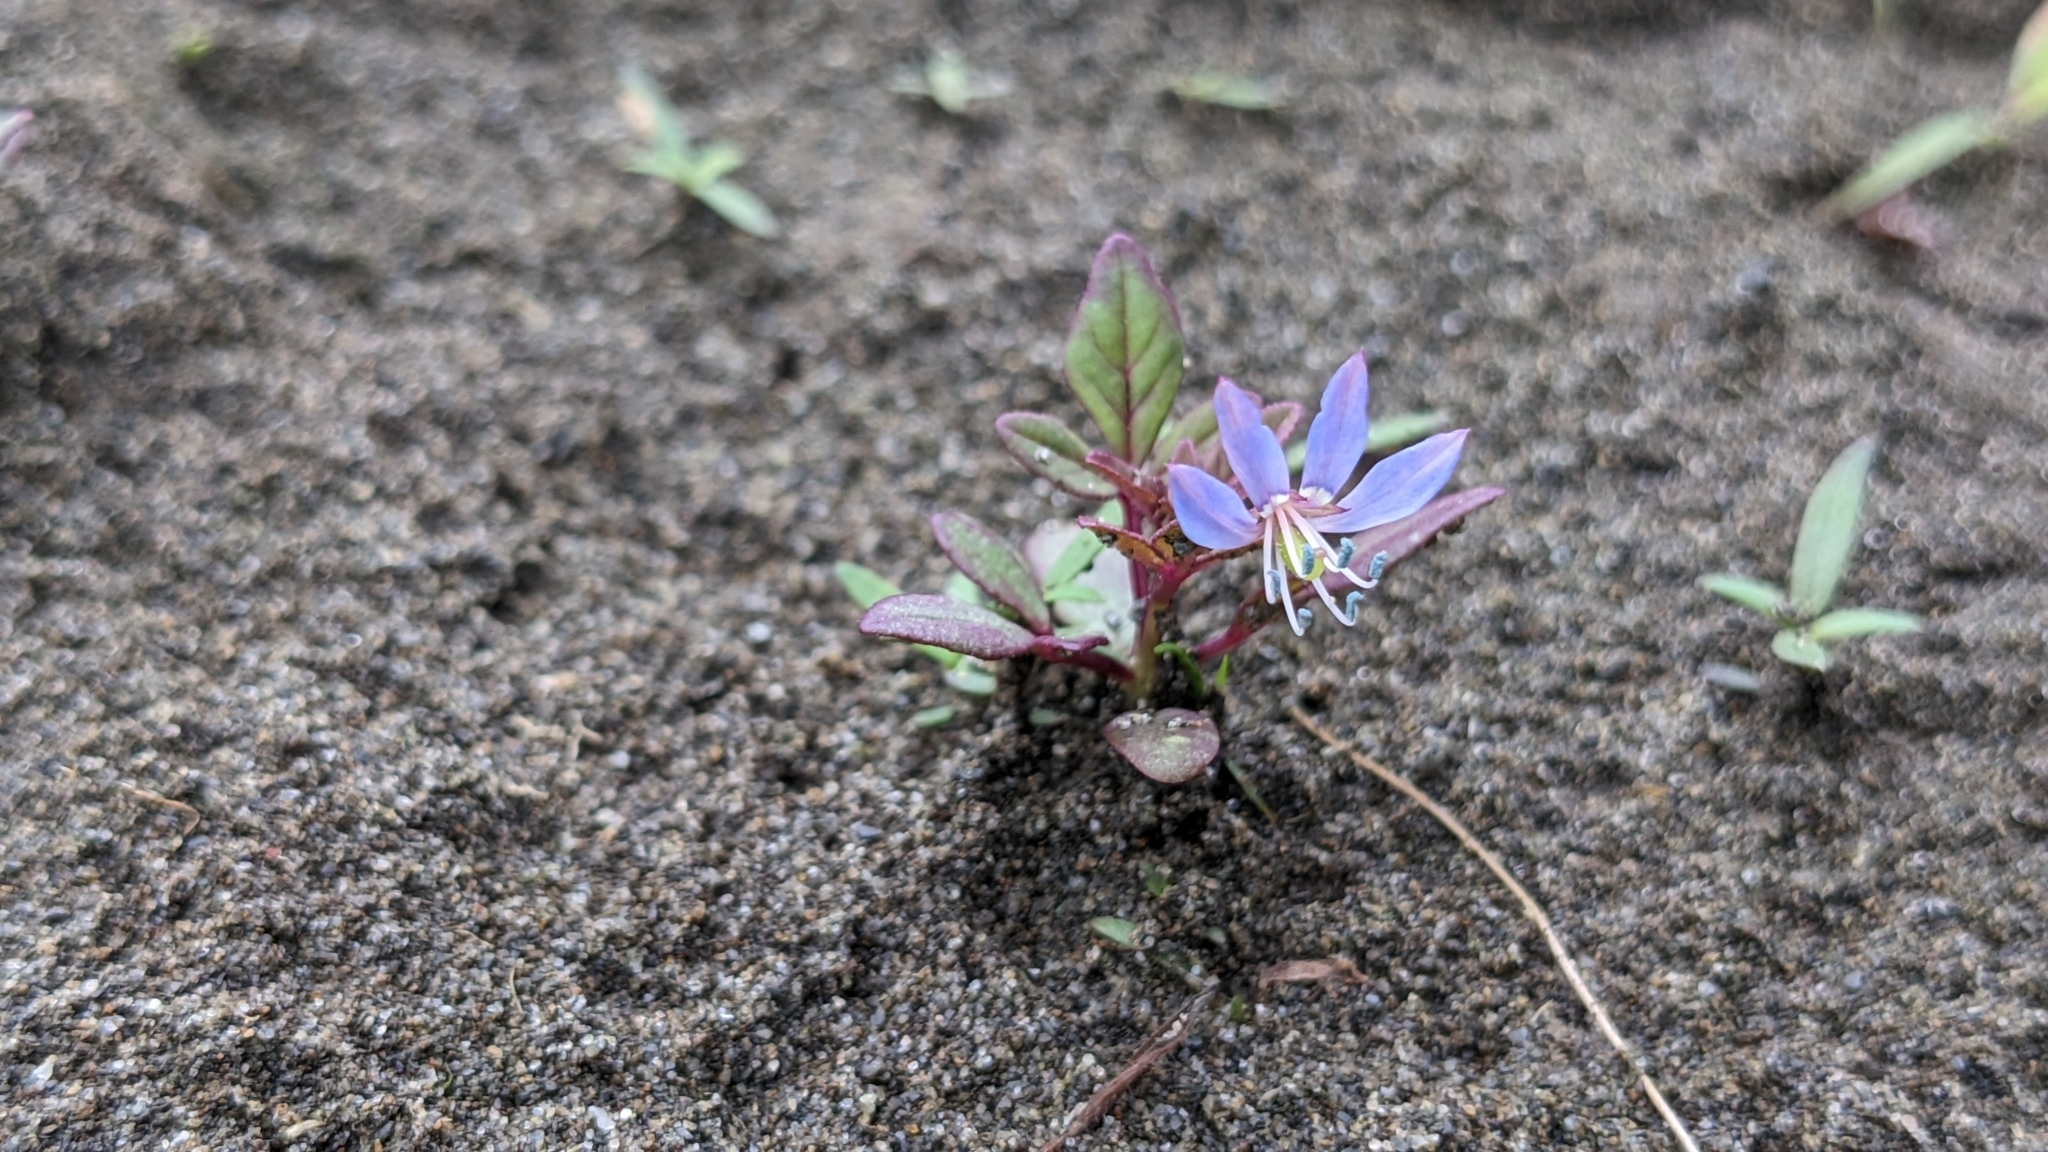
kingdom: Plantae
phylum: Tracheophyta
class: Magnoliopsida
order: Brassicales
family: Cleomaceae
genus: Sieruela
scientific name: Sieruela rutidosperma
